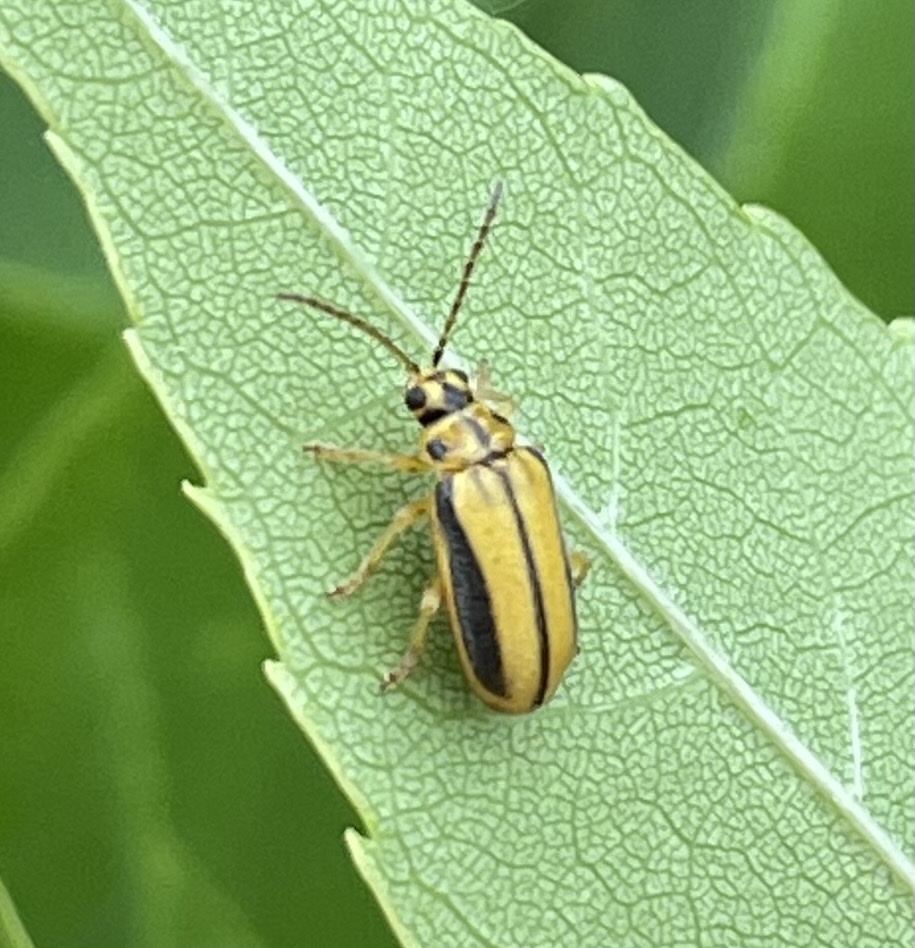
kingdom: Animalia
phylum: Arthropoda
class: Insecta
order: Coleoptera
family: Chrysomelidae
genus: Xanthogaleruca
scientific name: Xanthogaleruca luteola
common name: Elm leaf beetle
